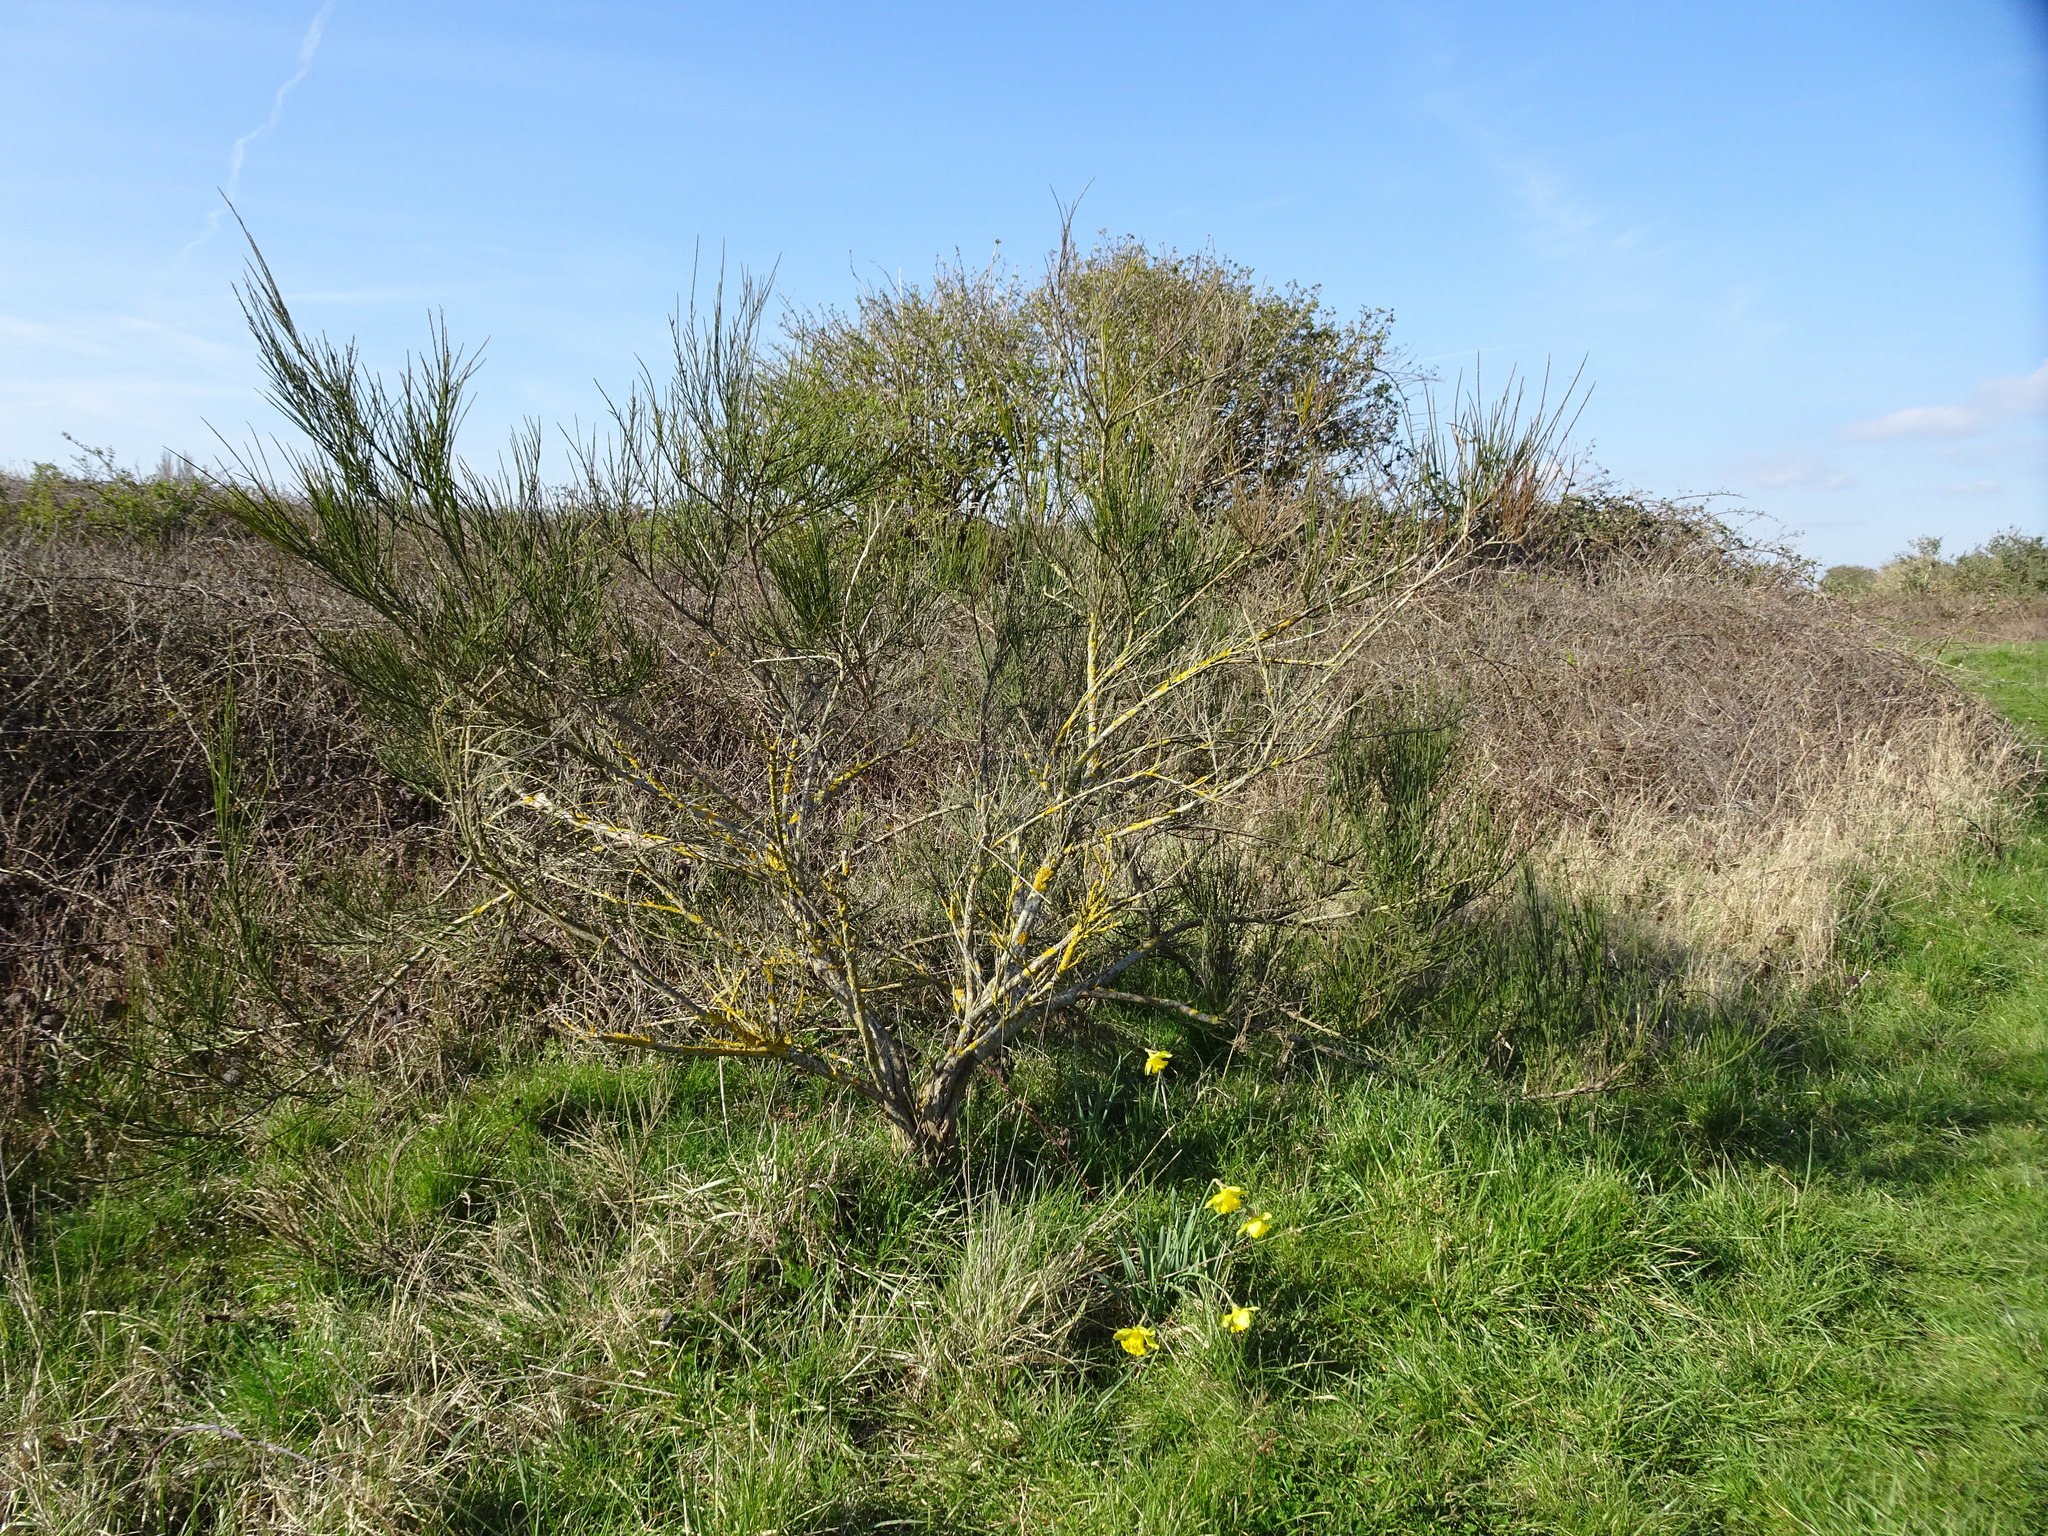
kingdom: Plantae
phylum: Tracheophyta
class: Magnoliopsida
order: Fabales
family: Fabaceae
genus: Cytisus
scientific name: Cytisus scoparius
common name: Scotch broom
